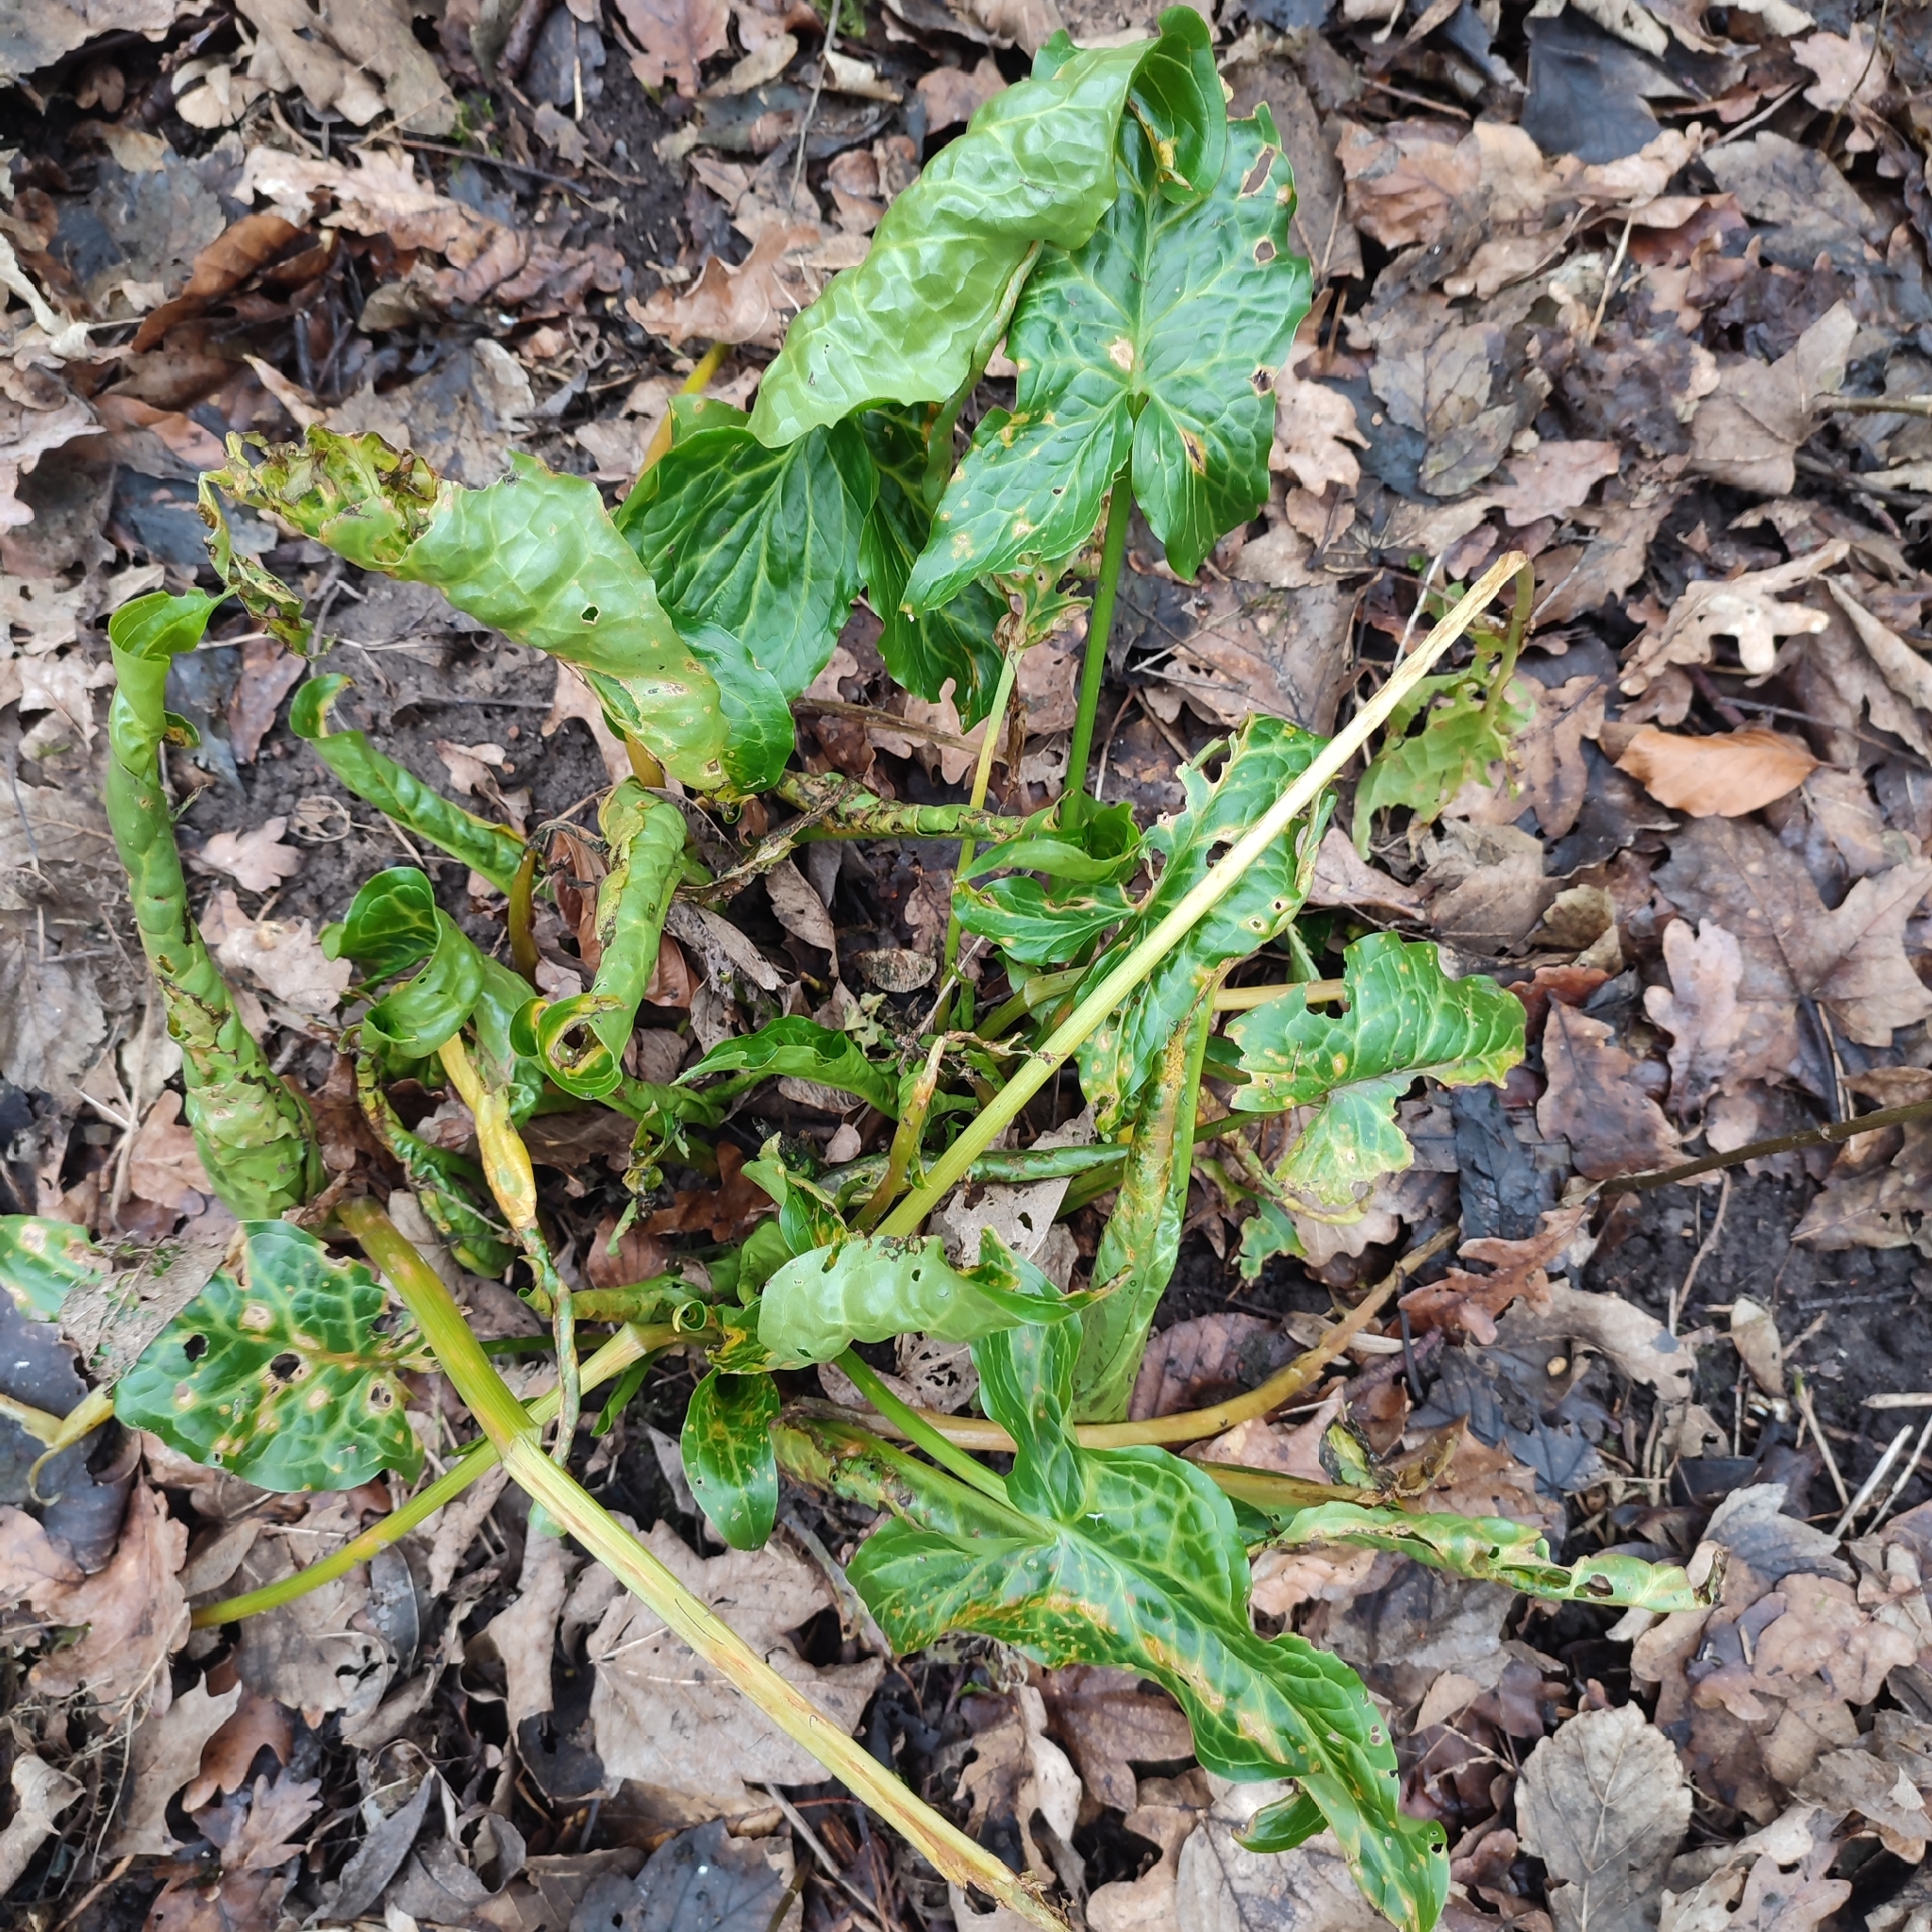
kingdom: Plantae
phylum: Tracheophyta
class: Liliopsida
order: Alismatales
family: Araceae
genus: Arum
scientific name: Arum italicum
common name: Italian lords-and-ladies
